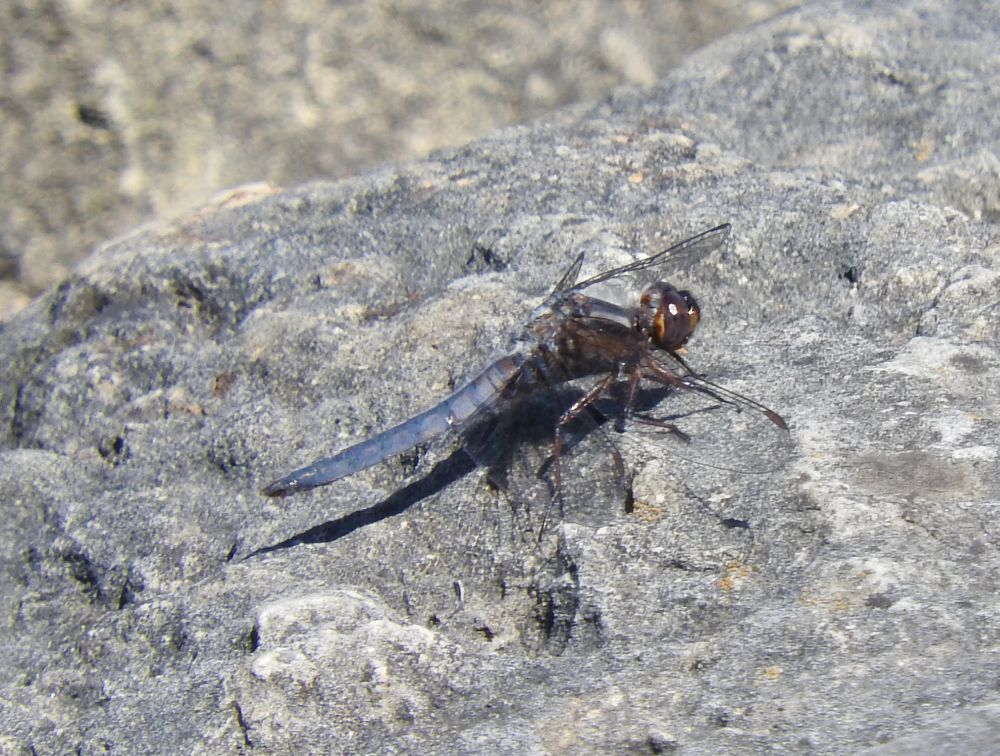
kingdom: Animalia
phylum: Arthropoda
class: Insecta
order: Odonata
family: Libellulidae
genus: Ladona
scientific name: Ladona deplanata
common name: Blue corporal
